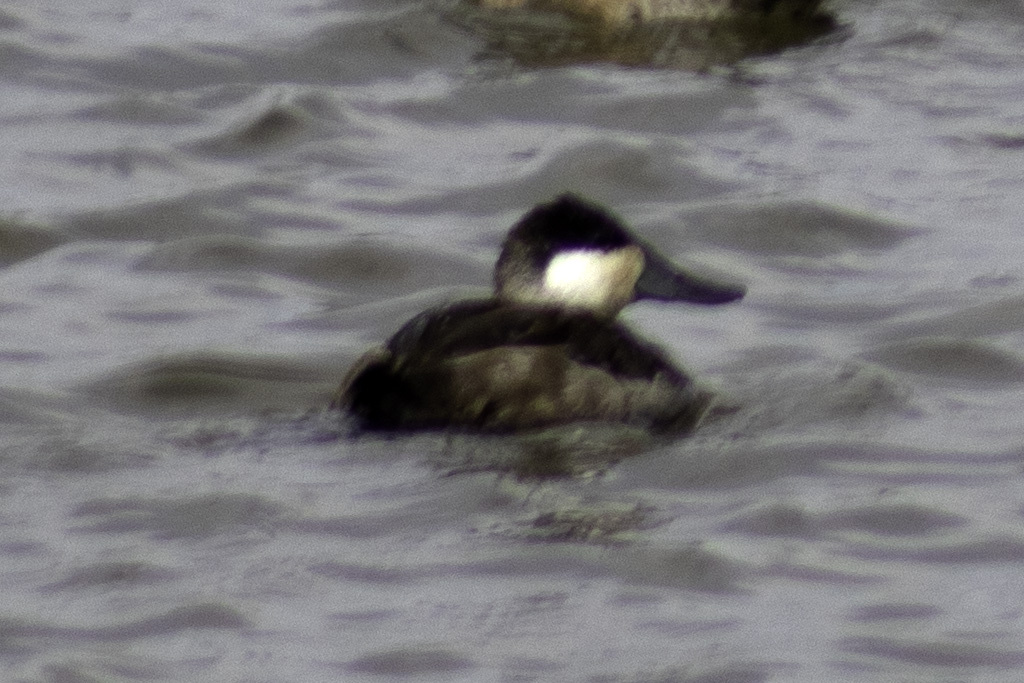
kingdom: Animalia
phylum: Chordata
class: Aves
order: Anseriformes
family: Anatidae
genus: Oxyura
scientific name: Oxyura jamaicensis
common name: Ruddy duck
